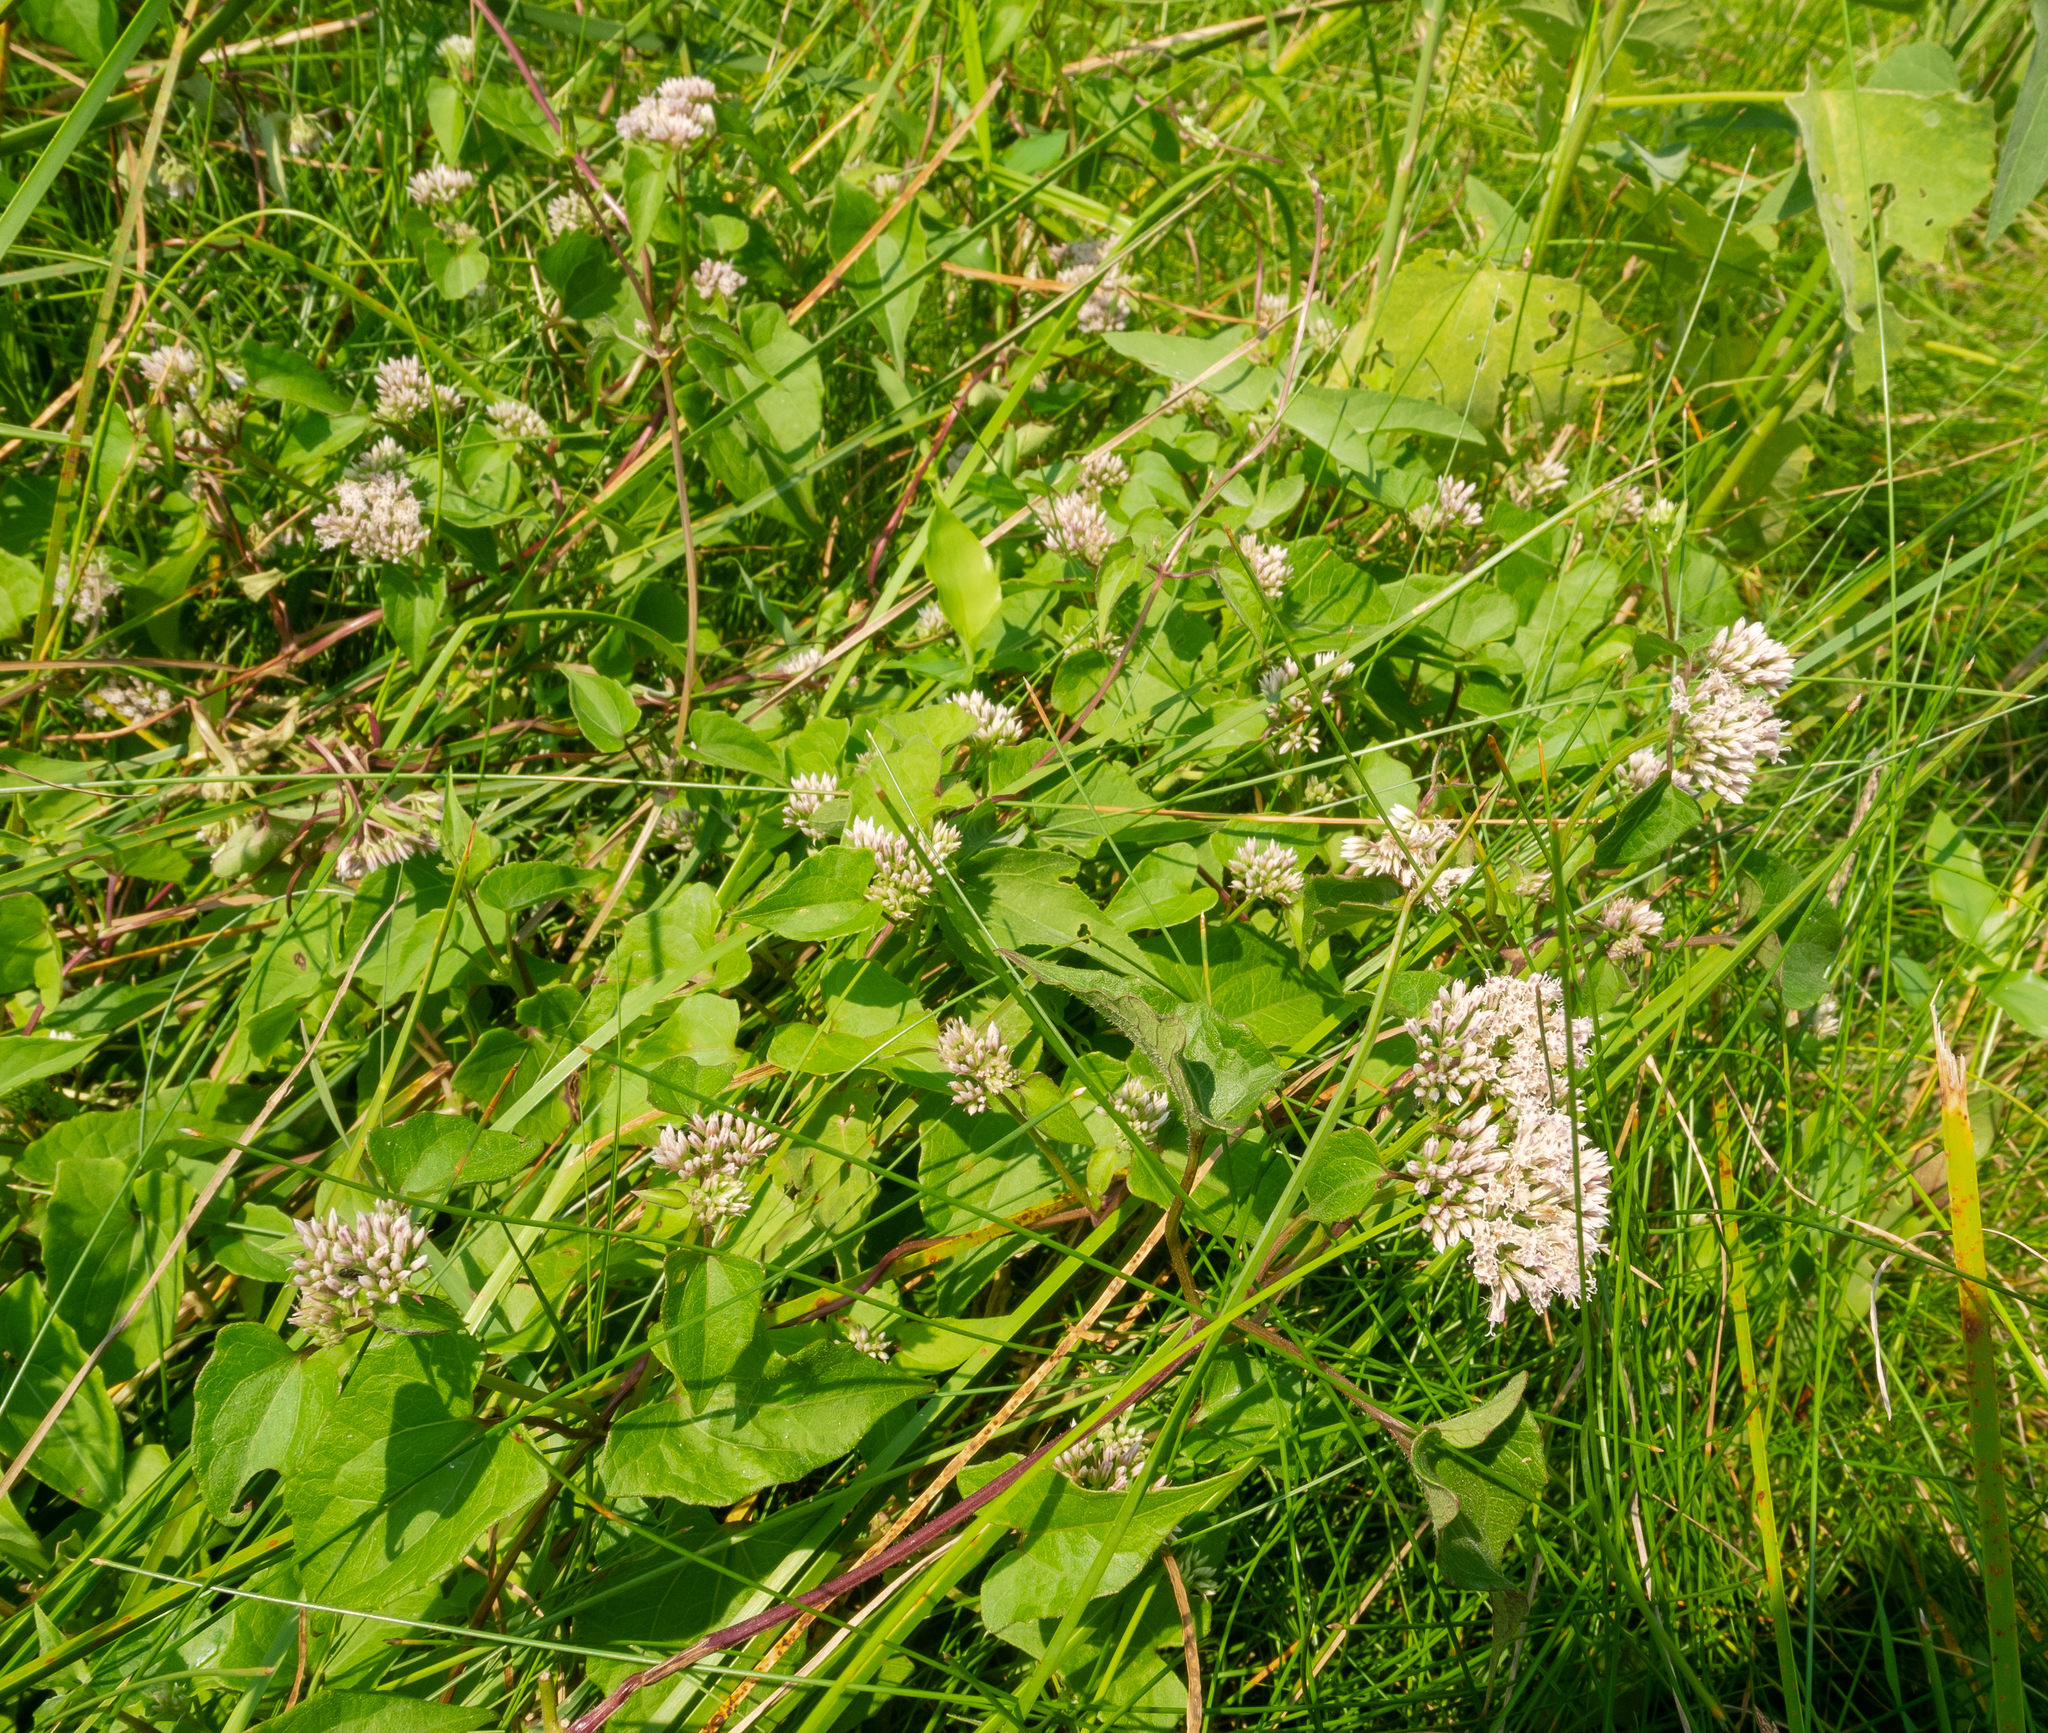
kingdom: Plantae
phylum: Tracheophyta
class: Magnoliopsida
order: Asterales
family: Asteraceae
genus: Mikania
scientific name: Mikania scandens
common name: Climbing hempvine
